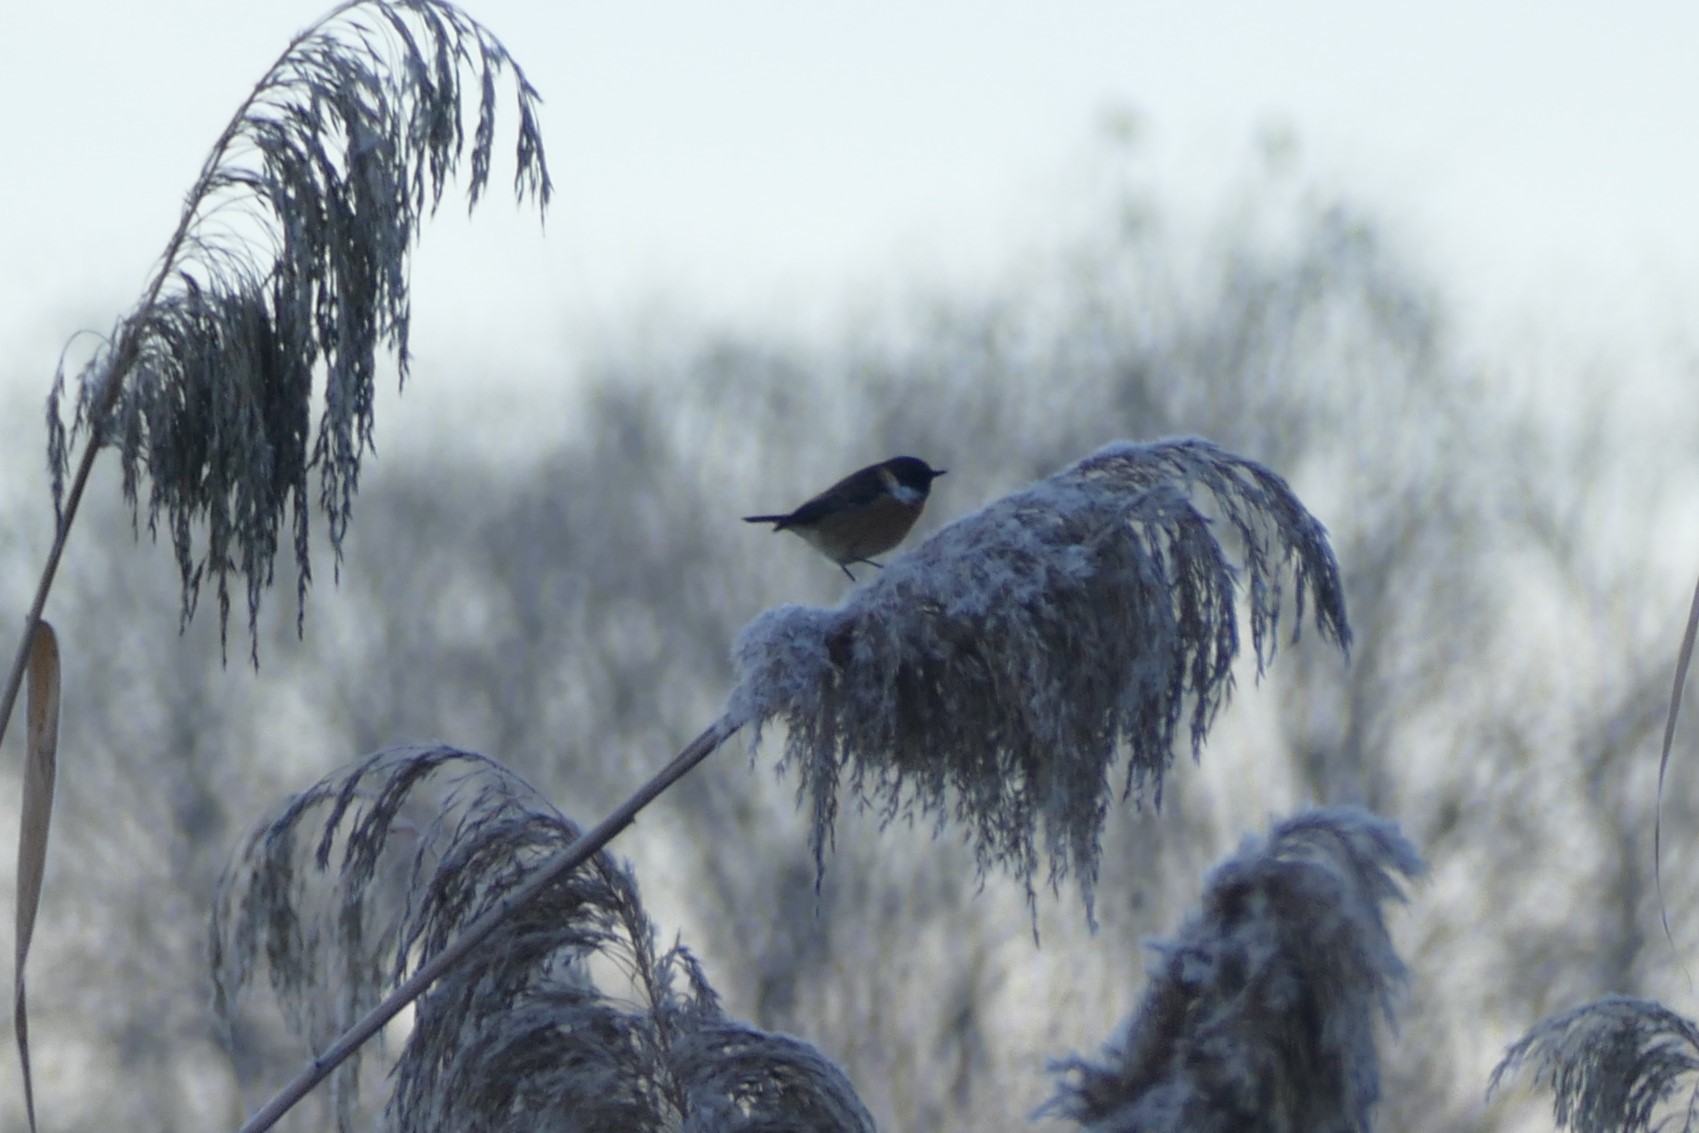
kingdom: Animalia
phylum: Chordata
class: Aves
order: Passeriformes
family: Muscicapidae
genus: Saxicola
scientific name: Saxicola rubicola
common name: European stonechat
